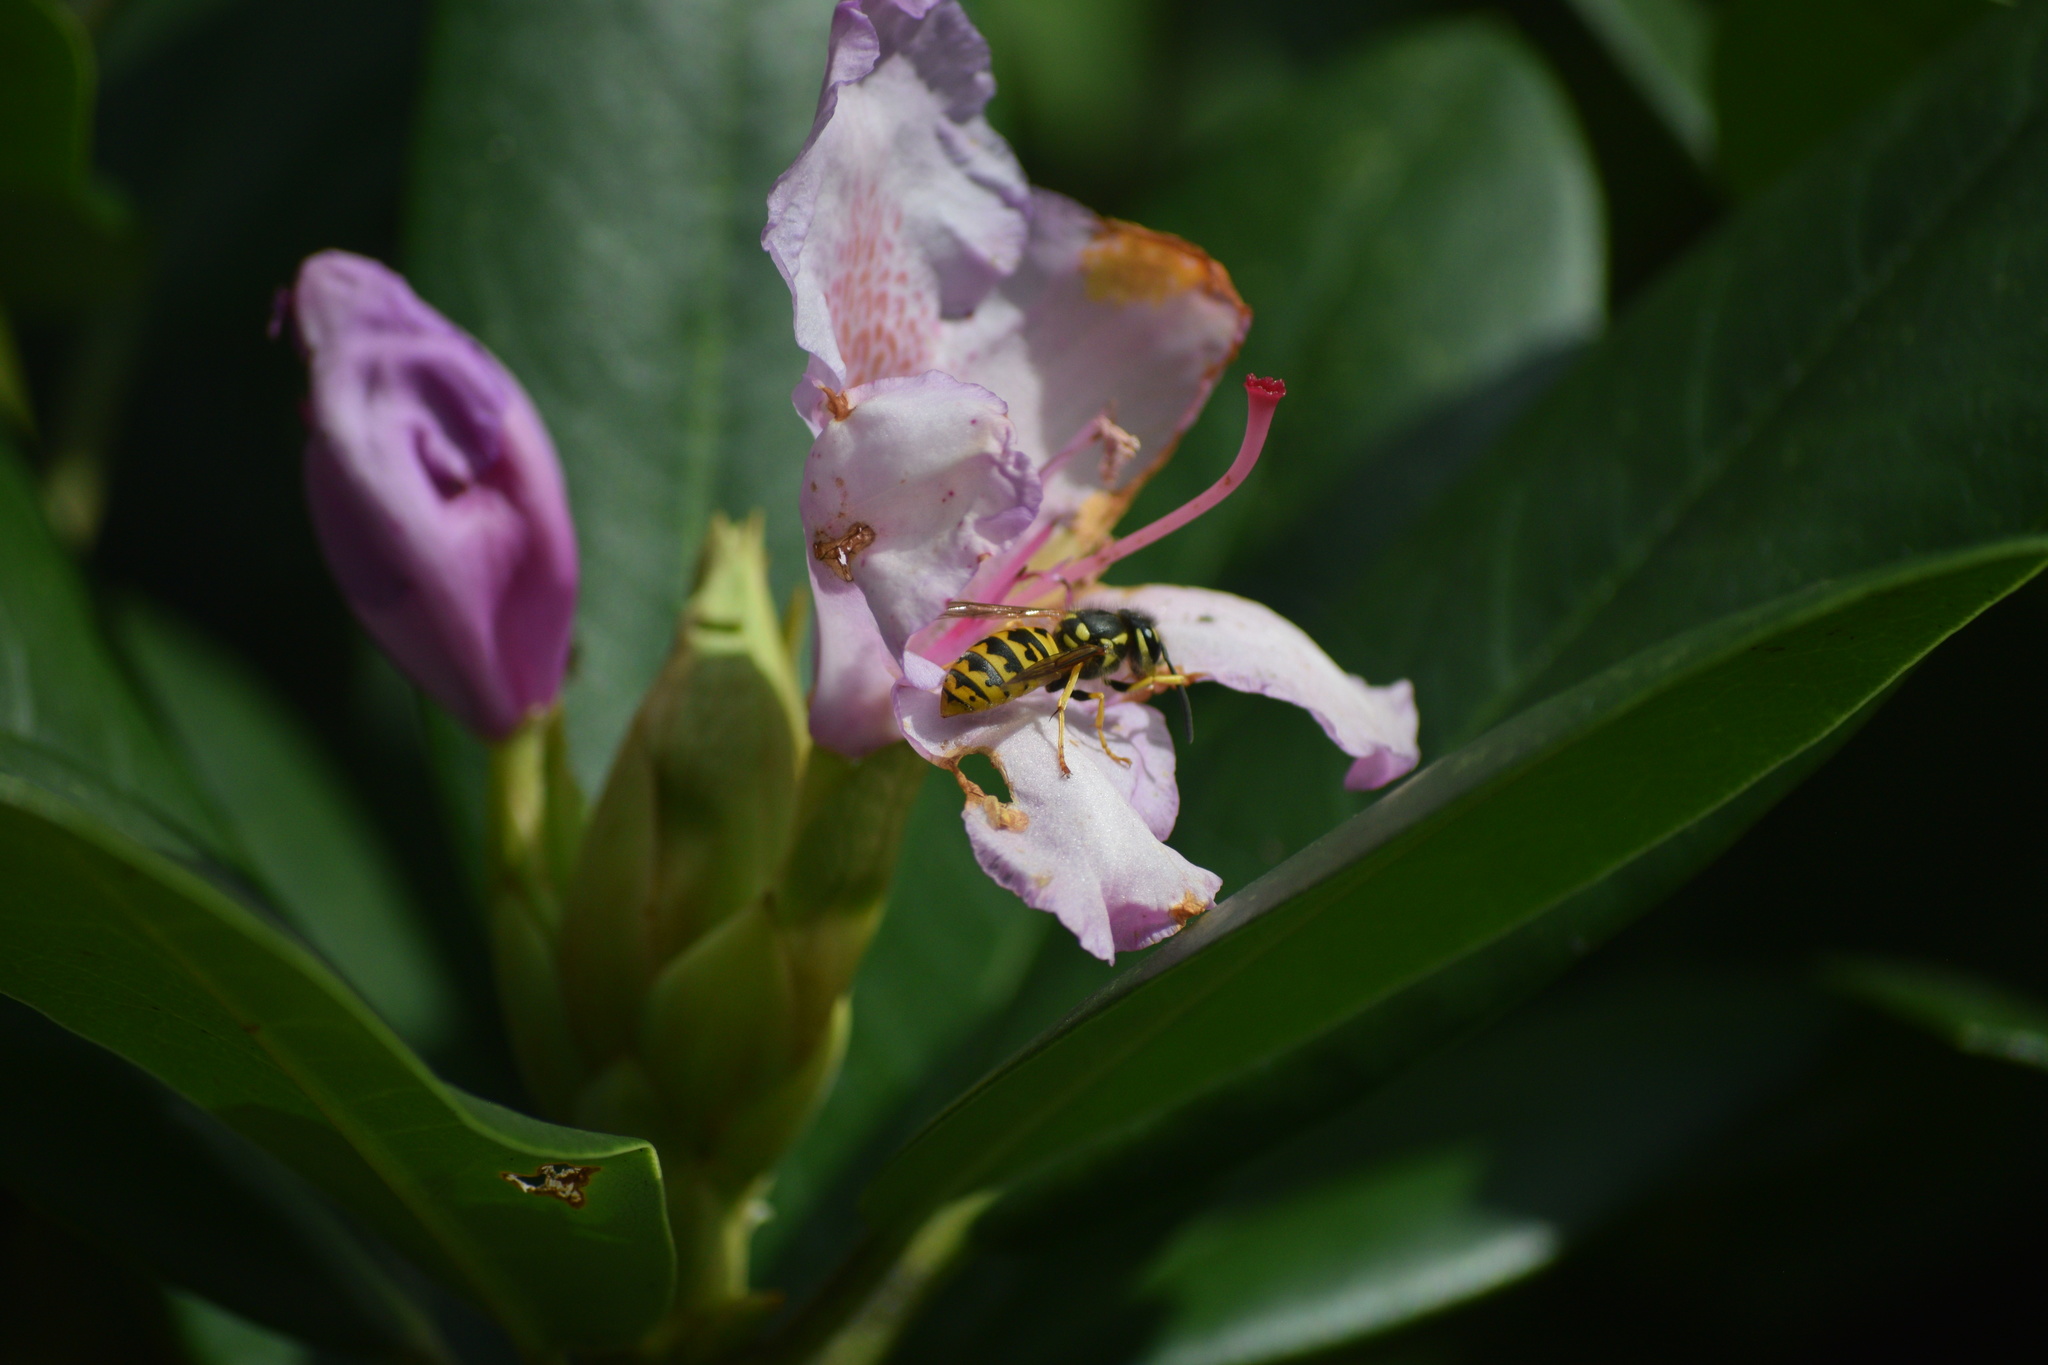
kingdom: Animalia
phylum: Arthropoda
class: Insecta
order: Hymenoptera
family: Vespidae
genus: Vespula
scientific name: Vespula germanica
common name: German wasp
